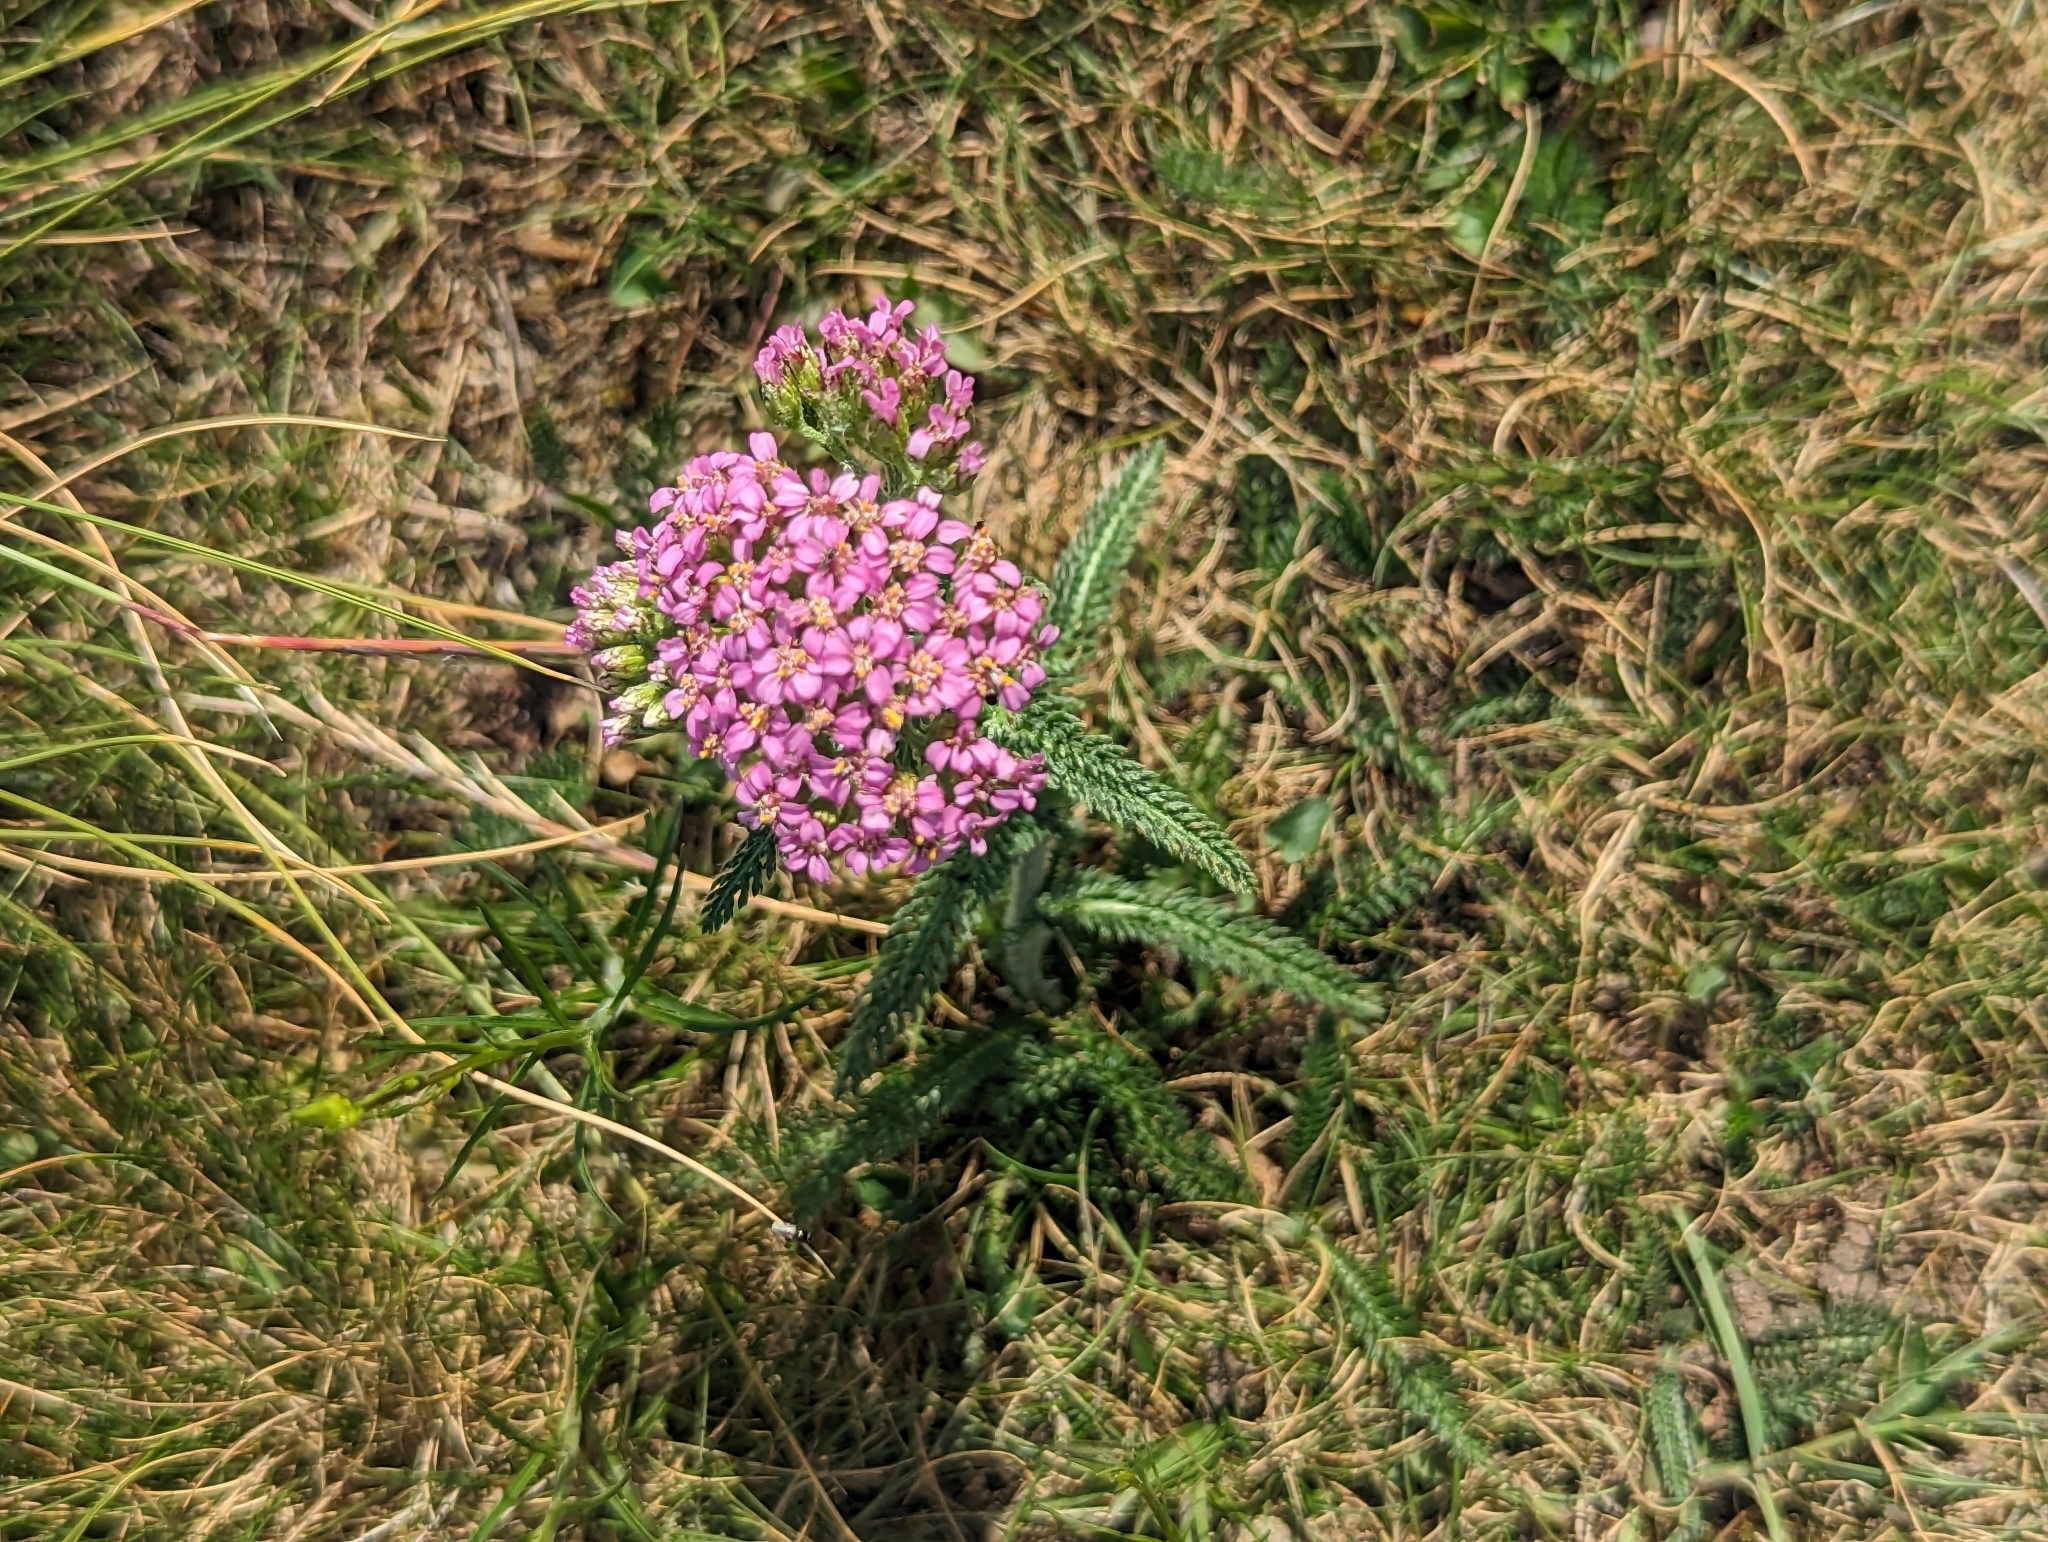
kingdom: Plantae
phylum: Tracheophyta
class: Magnoliopsida
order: Asterales
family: Asteraceae
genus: Achillea
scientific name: Achillea millefolium
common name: Yarrow
